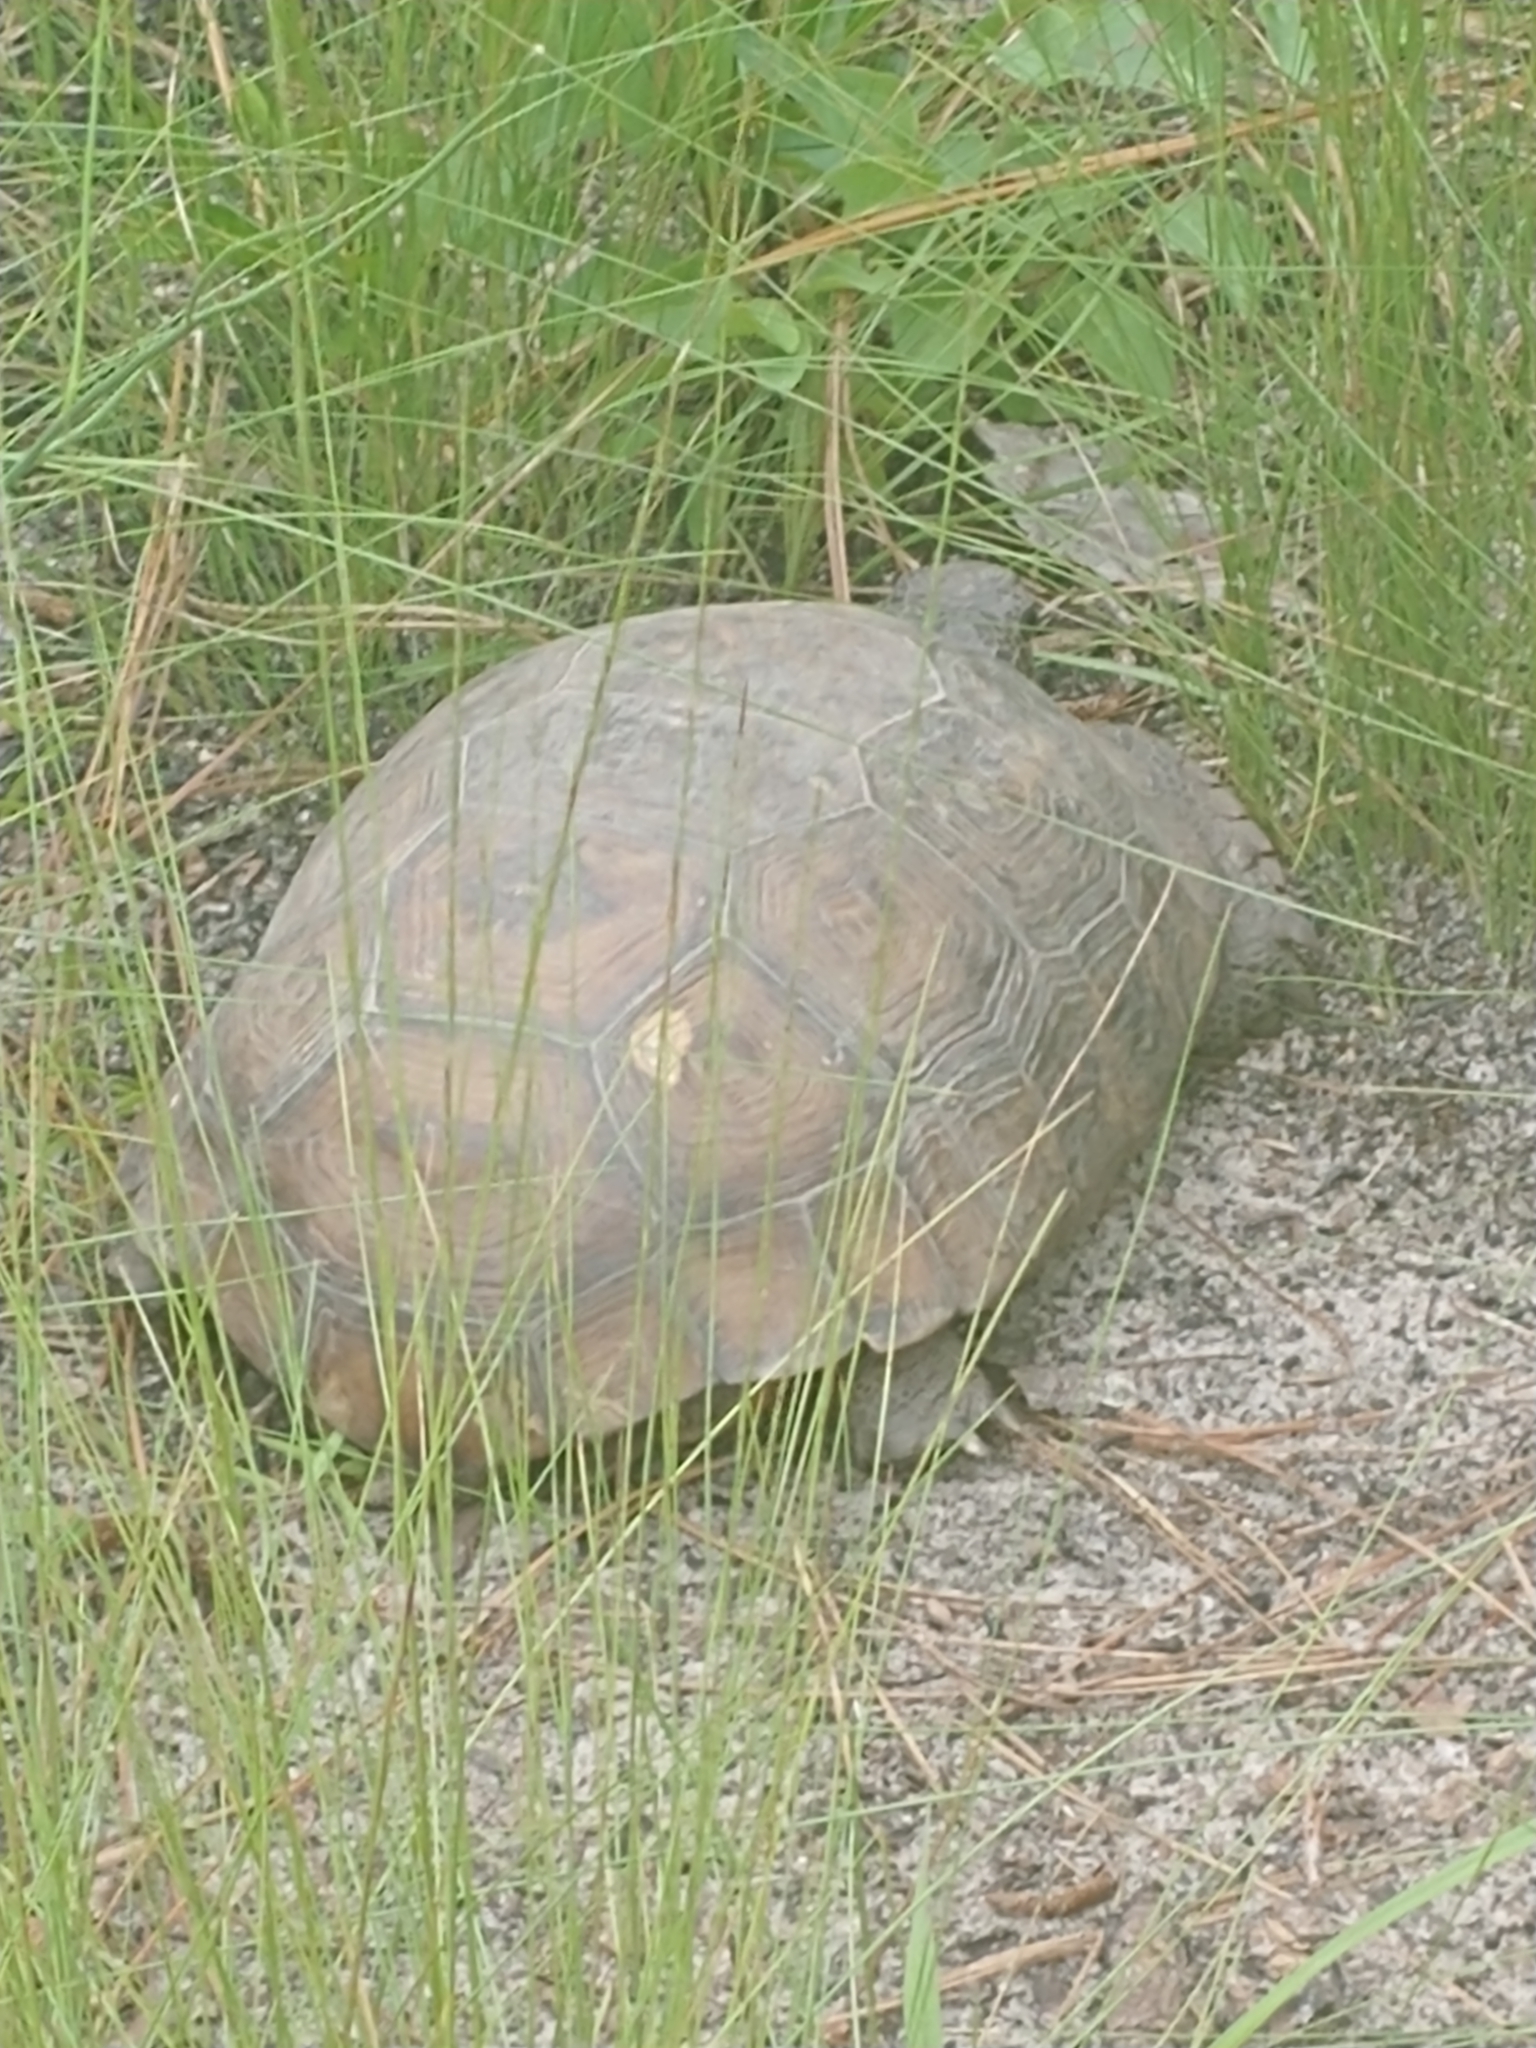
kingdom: Animalia
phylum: Chordata
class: Testudines
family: Testudinidae
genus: Gopherus
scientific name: Gopherus polyphemus
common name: Florida gopher tortoise
